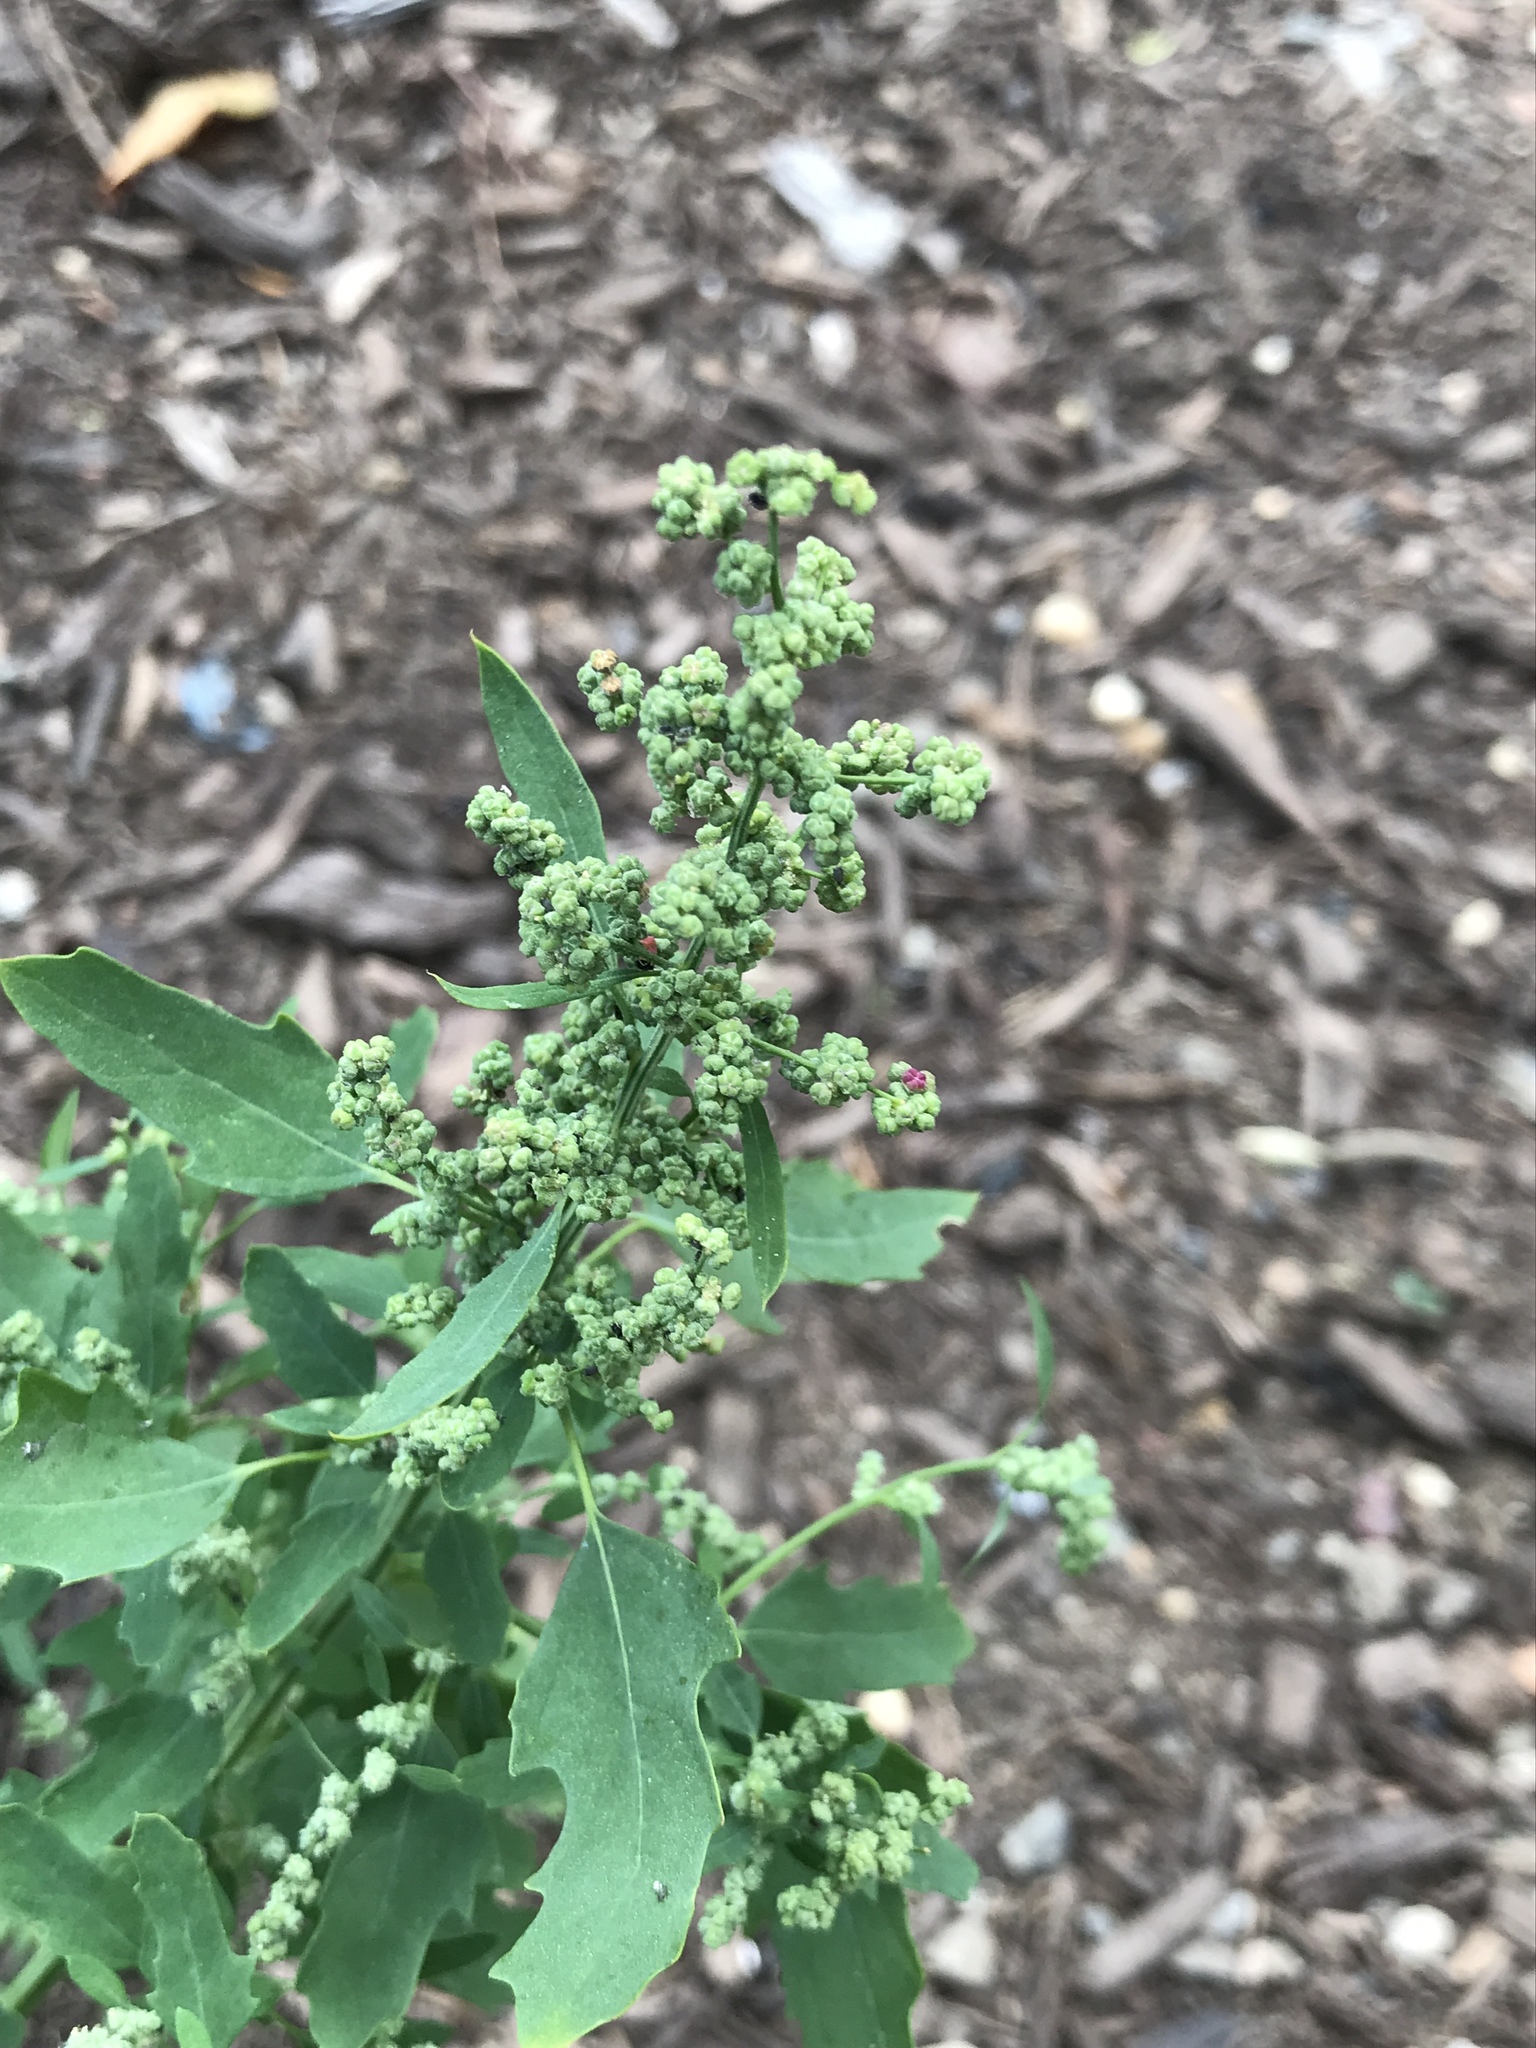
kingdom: Plantae
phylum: Tracheophyta
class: Magnoliopsida
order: Caryophyllales
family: Amaranthaceae
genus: Chenopodium
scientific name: Chenopodium ficifolium
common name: Fig-leaved goosefoot
